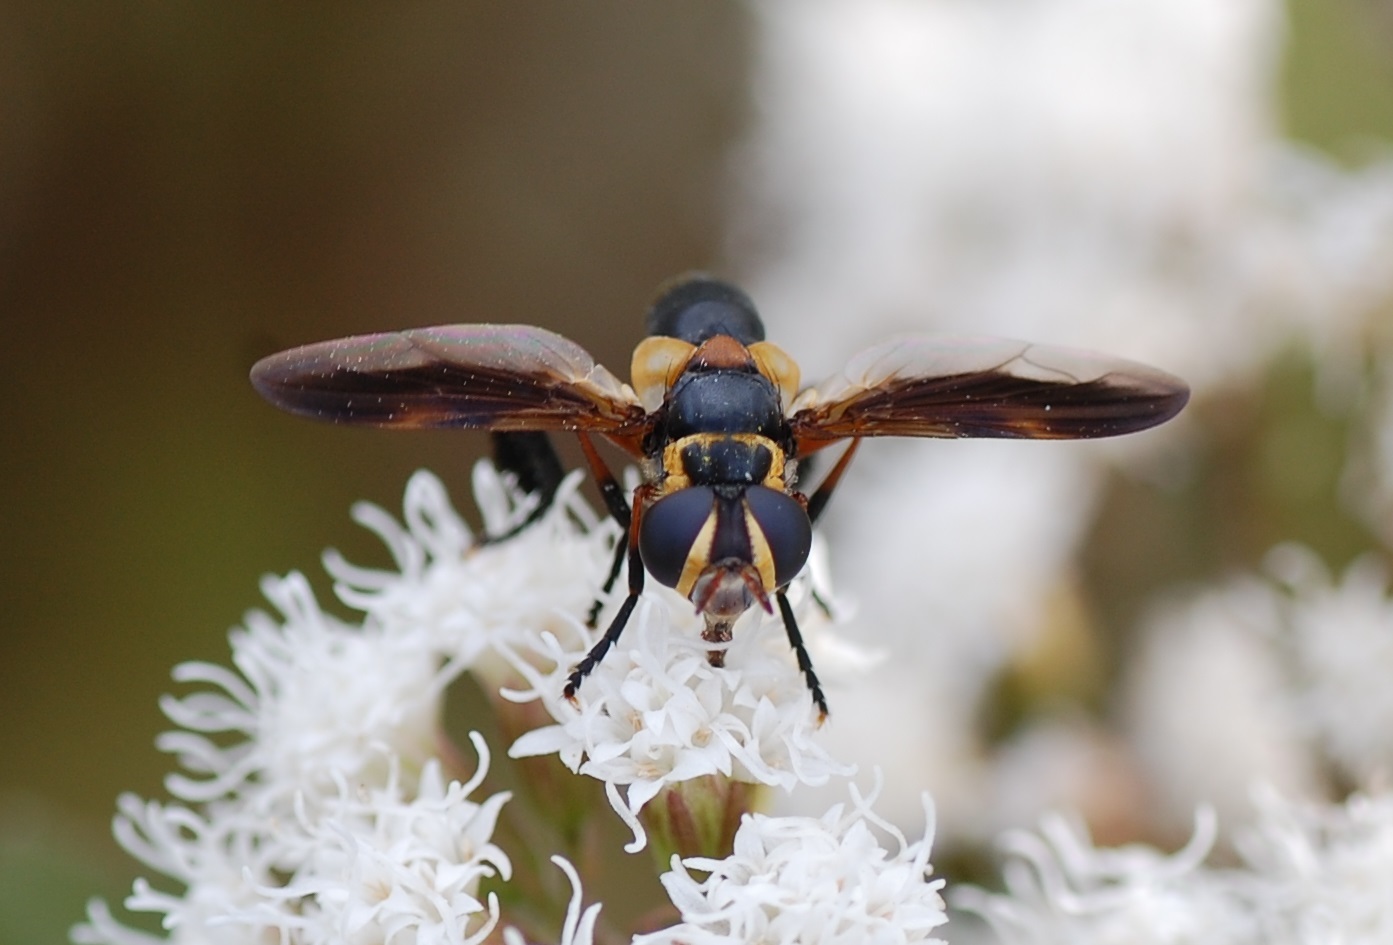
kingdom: Animalia
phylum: Arthropoda
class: Insecta
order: Diptera
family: Tachinidae
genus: Trichopoda
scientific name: Trichopoda plumipes
